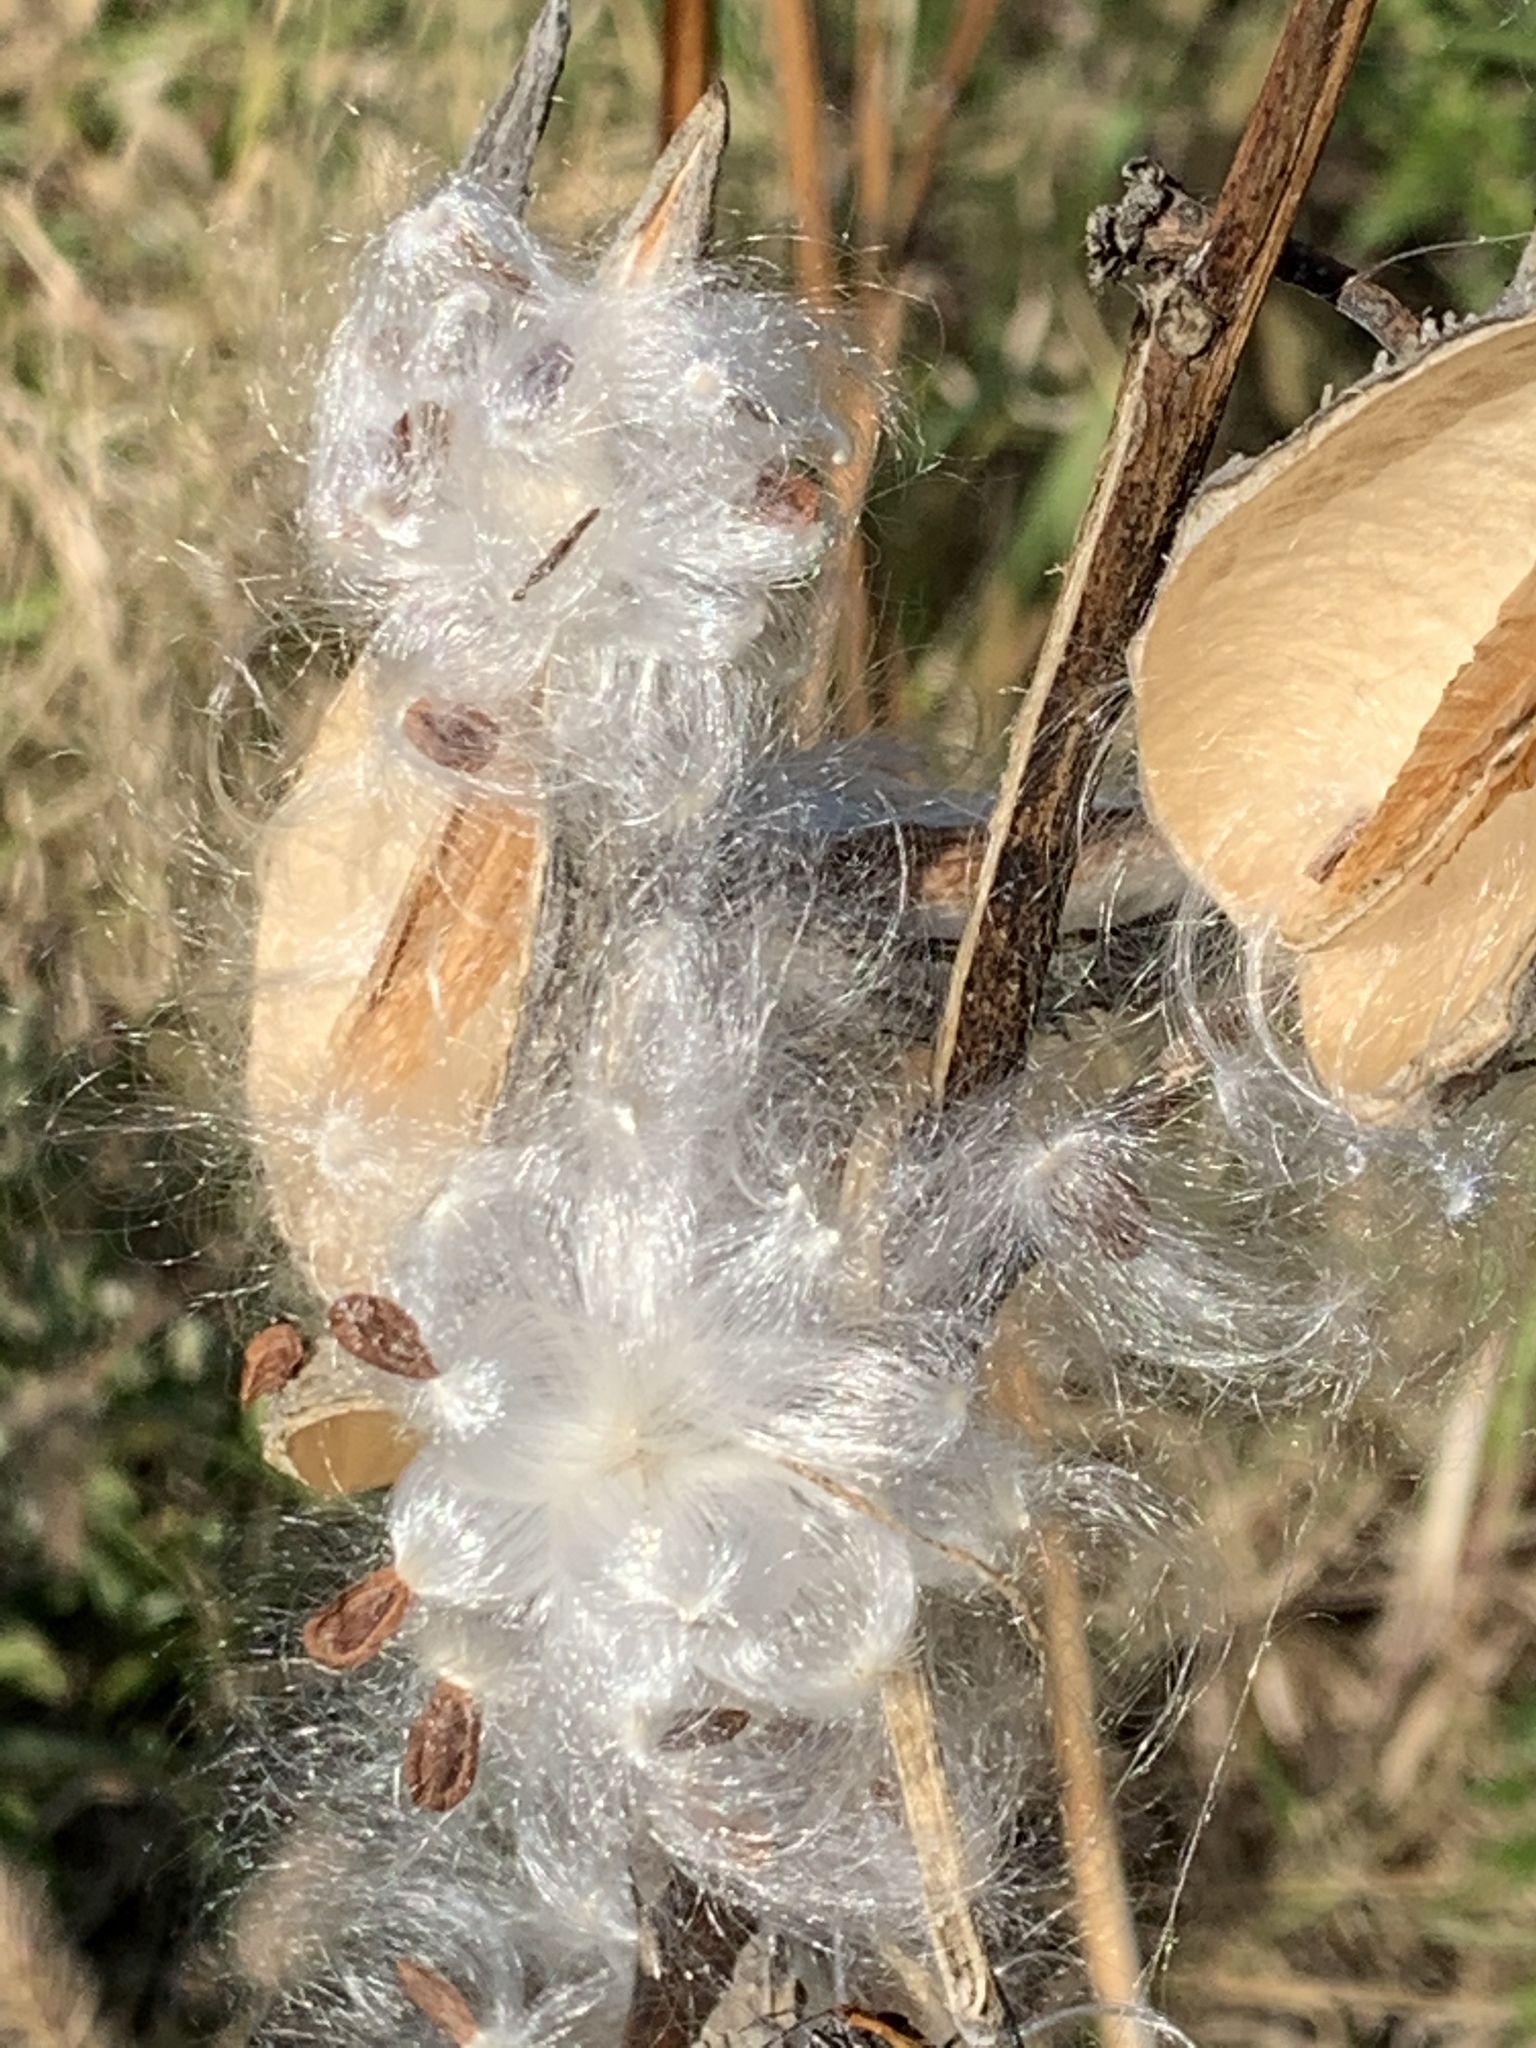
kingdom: Plantae
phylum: Tracheophyta
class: Magnoliopsida
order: Gentianales
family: Apocynaceae
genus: Asclepias
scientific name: Asclepias syriaca
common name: Common milkweed
